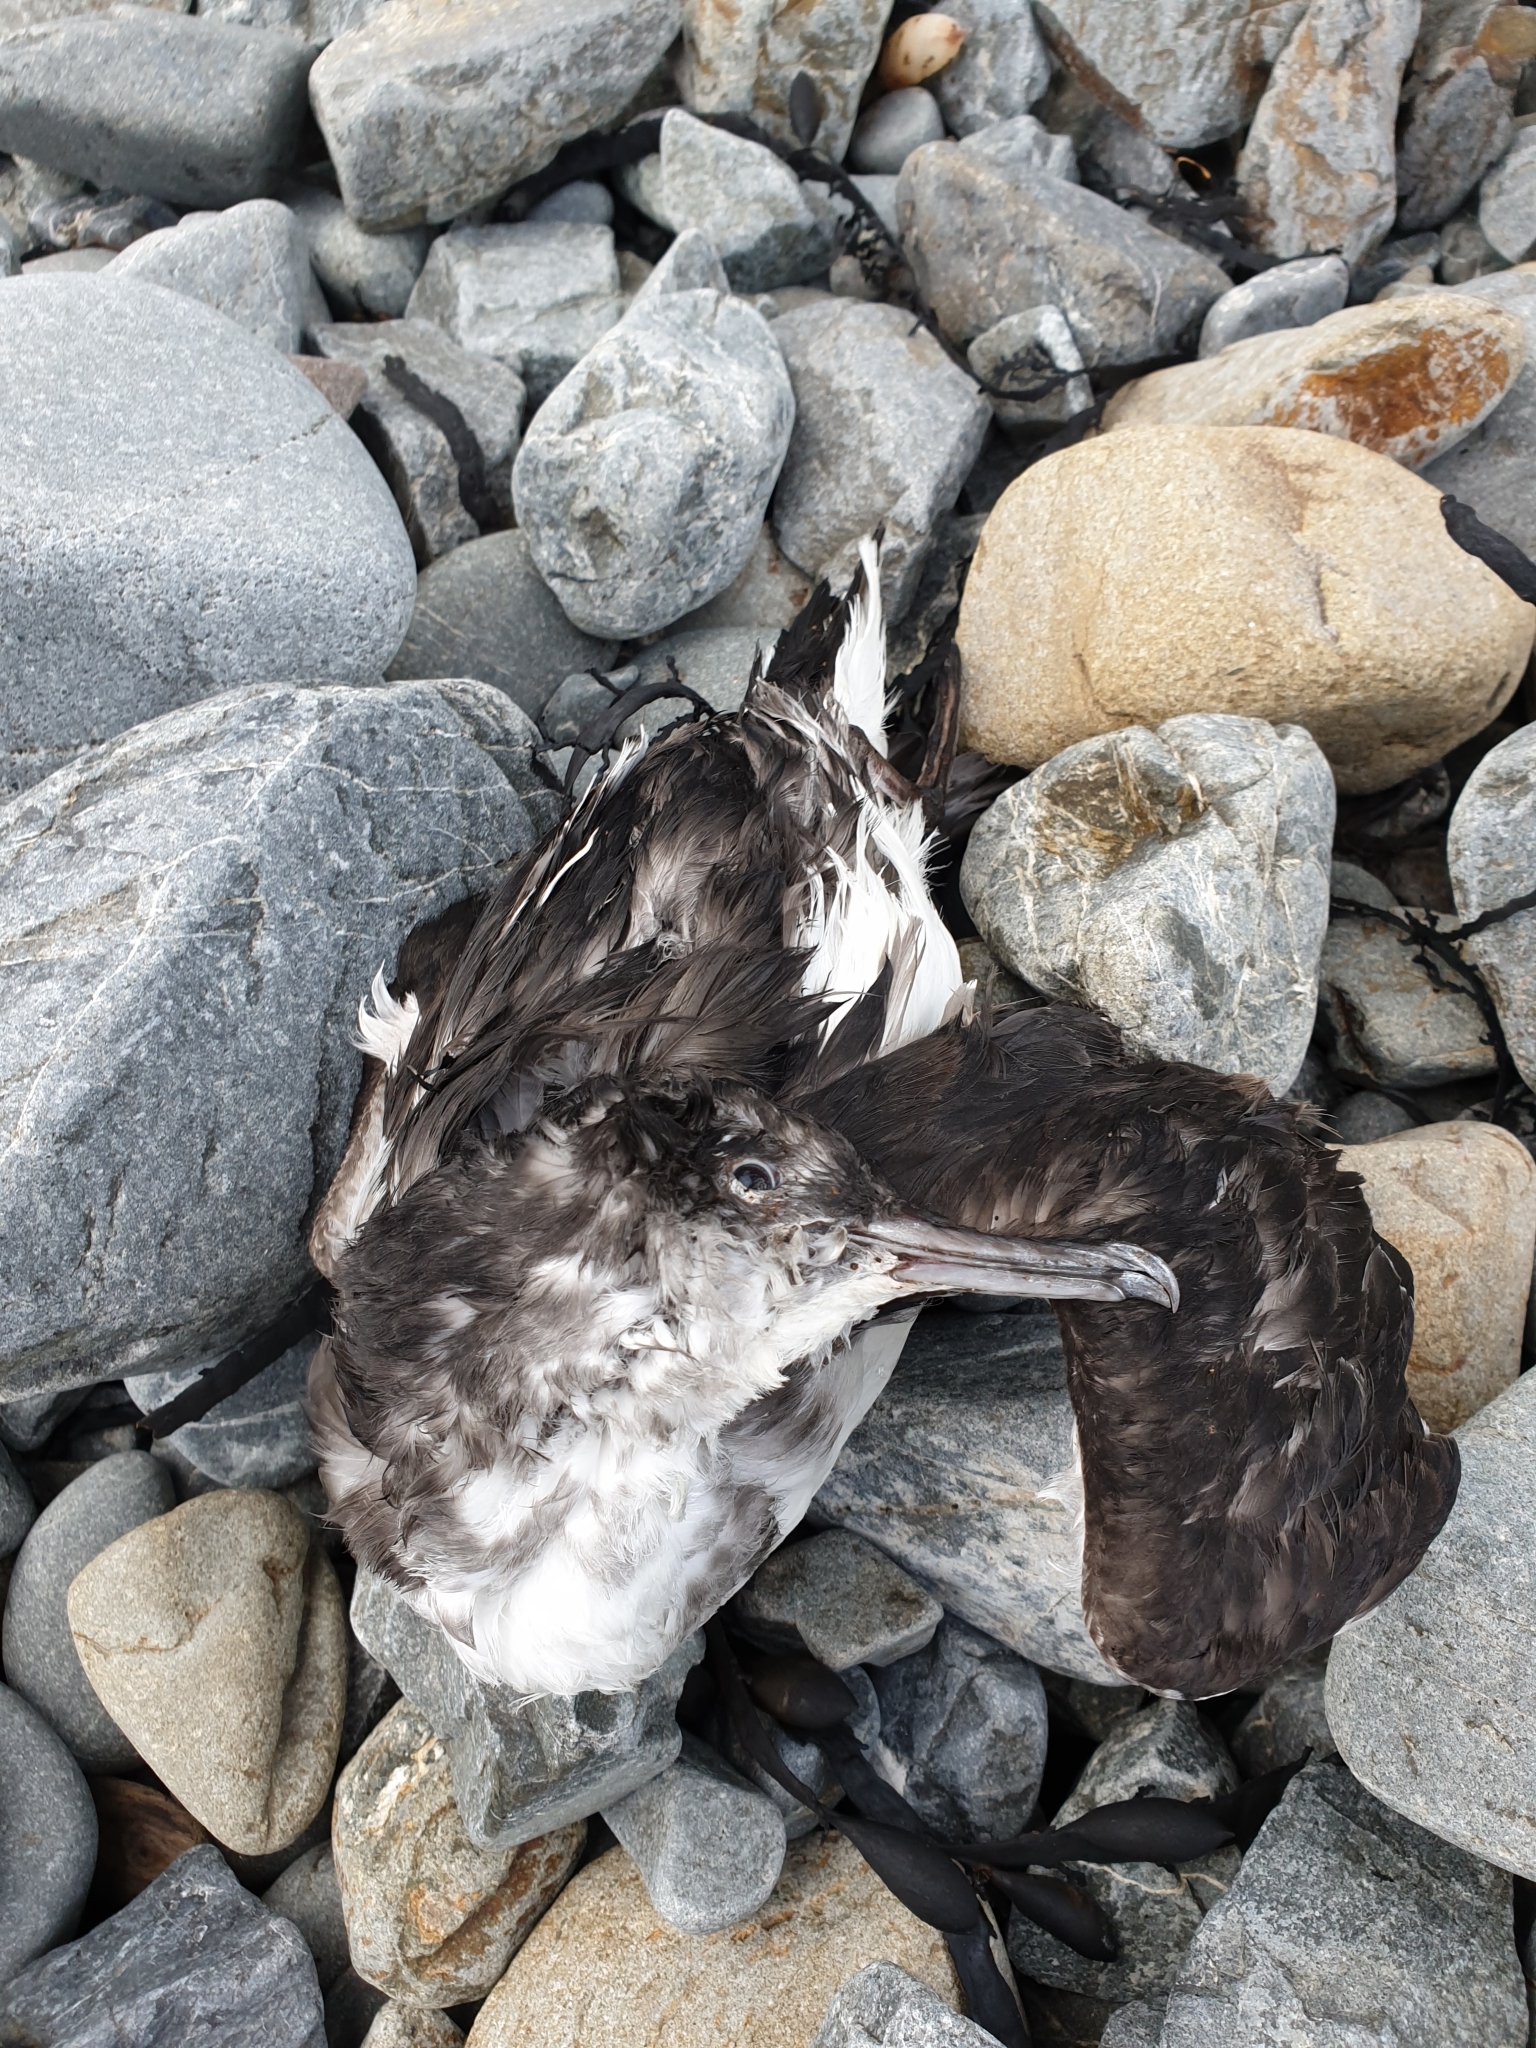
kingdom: Animalia
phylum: Chordata
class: Aves
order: Procellariiformes
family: Procellariidae
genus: Puffinus
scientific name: Puffinus gavia
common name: Fluttering shearwater
